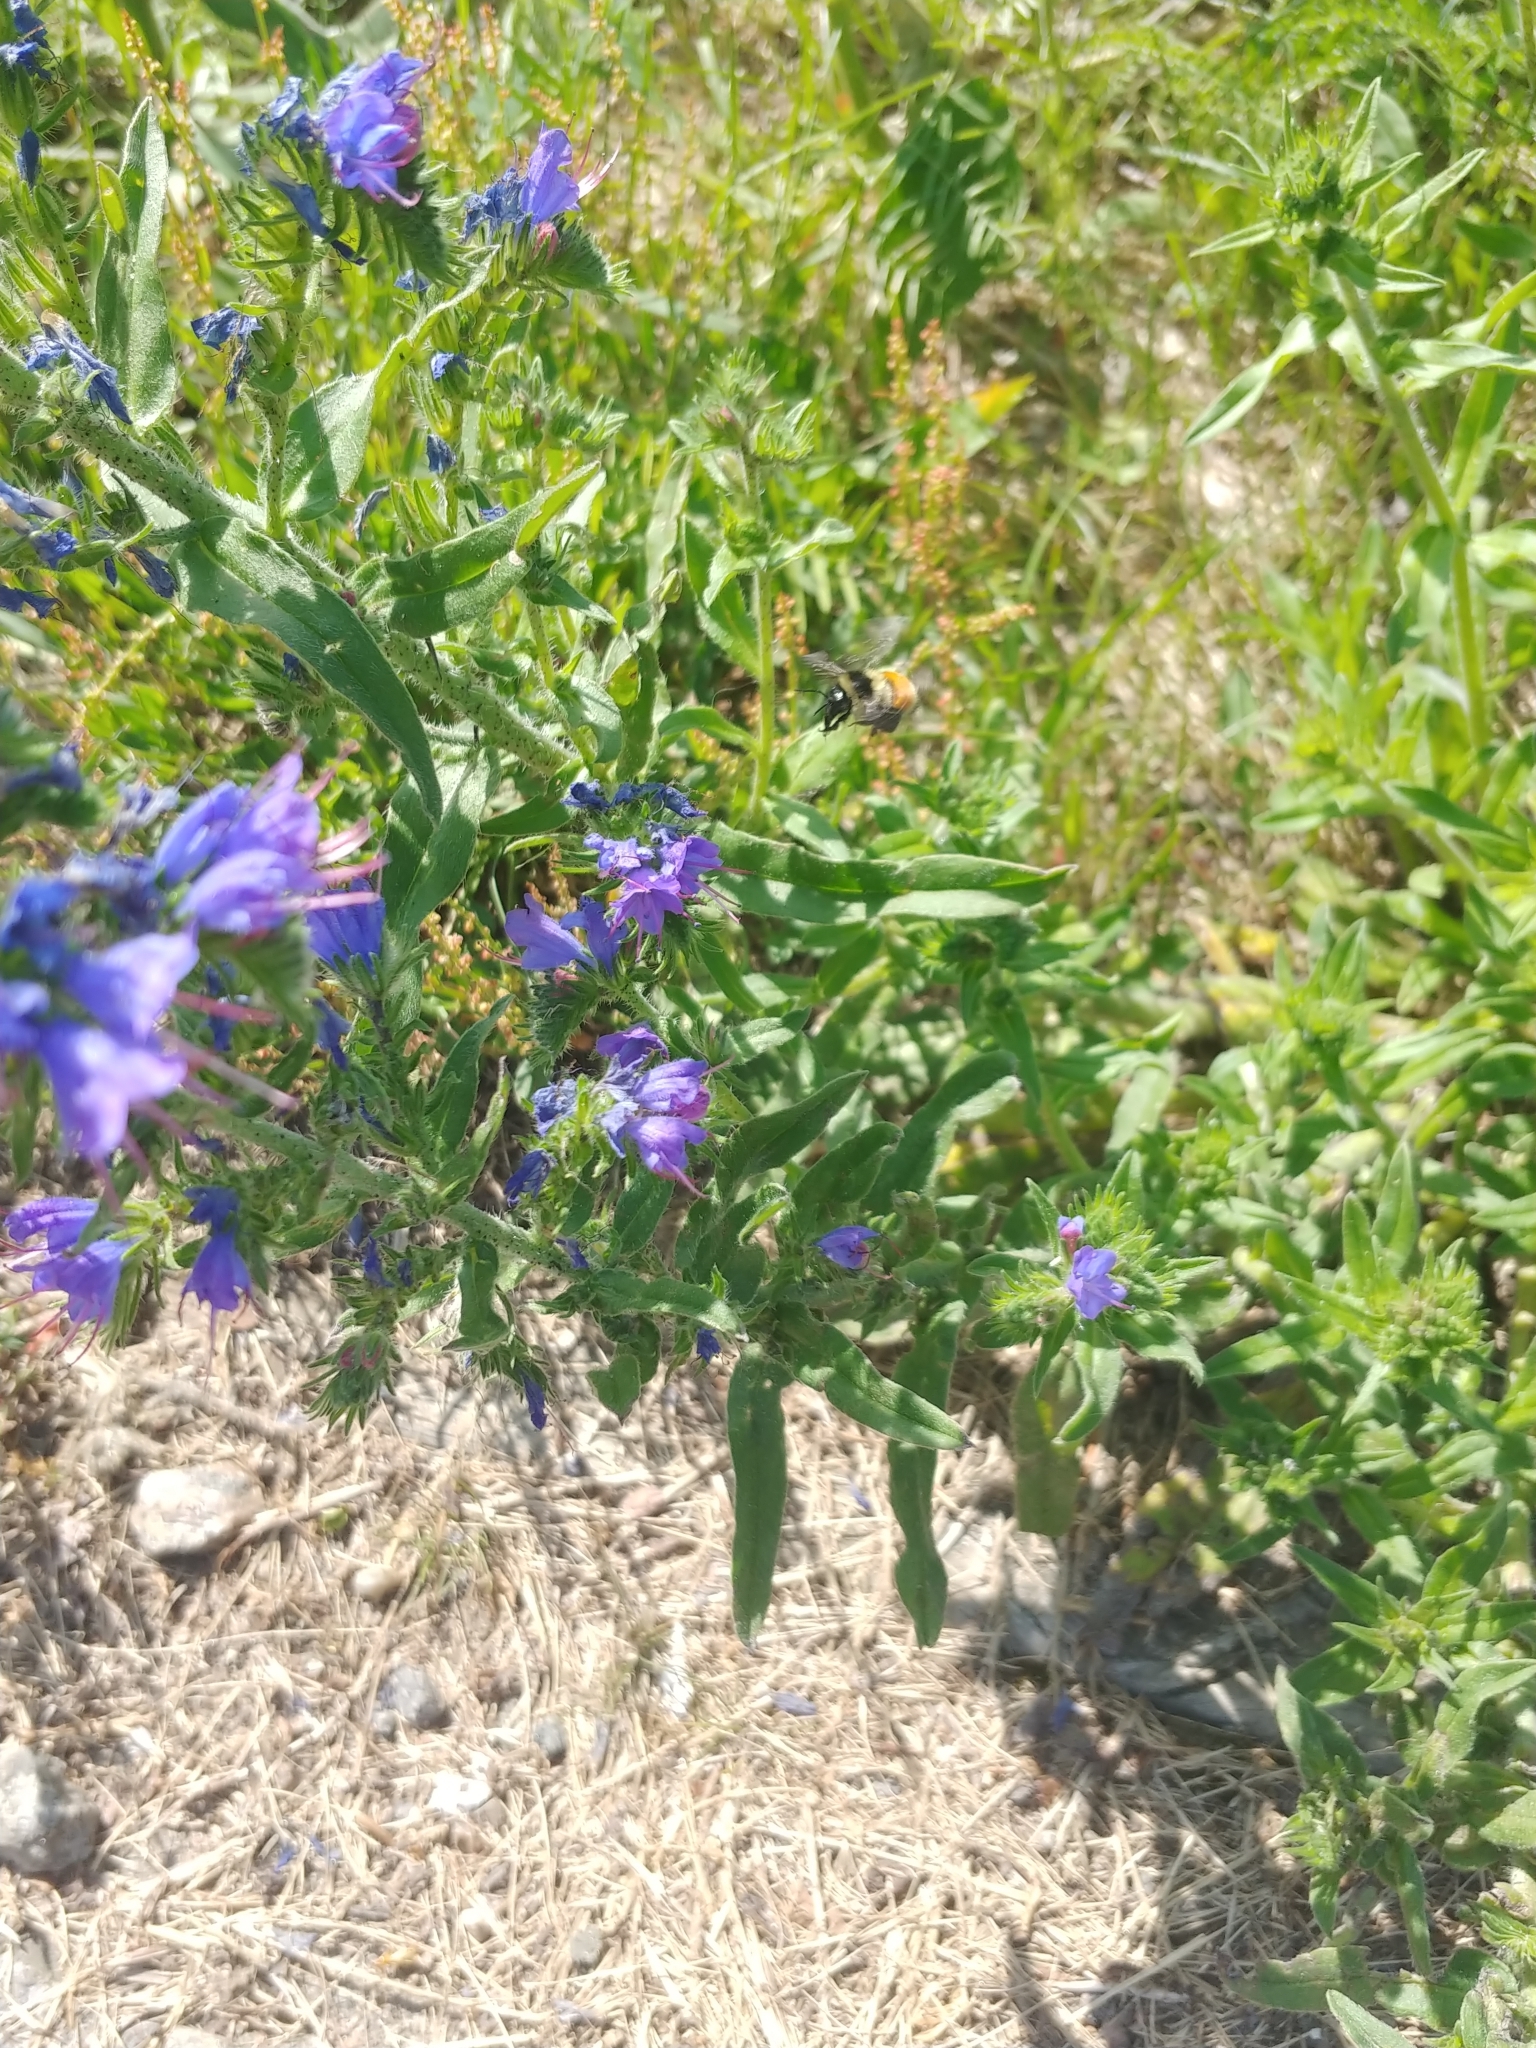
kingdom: Animalia
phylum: Arthropoda
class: Insecta
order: Hymenoptera
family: Apidae
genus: Bombus
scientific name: Bombus ternarius
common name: Tri-colored bumble bee
